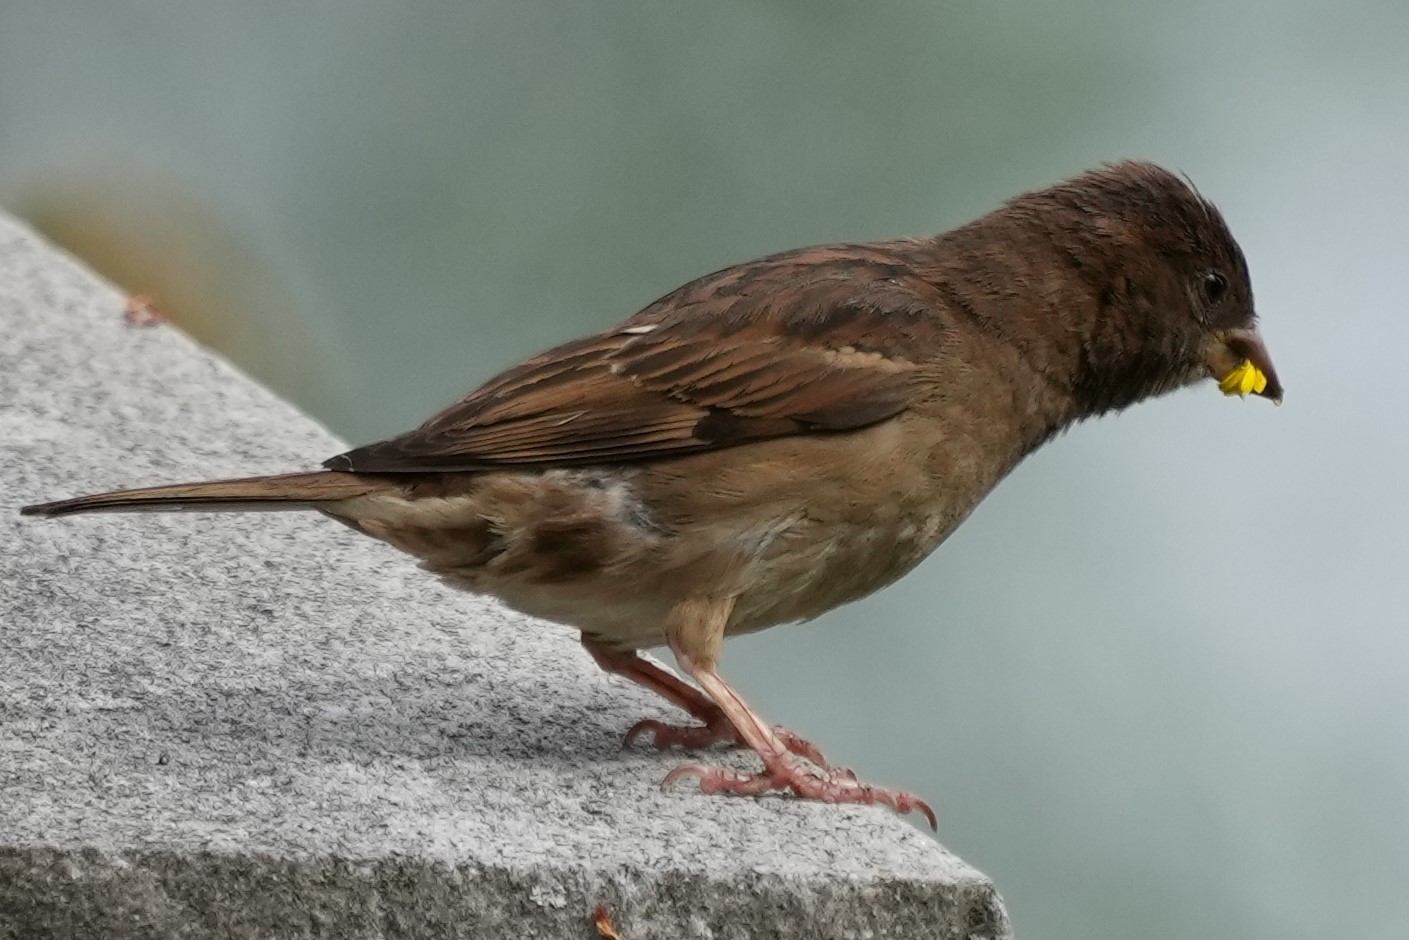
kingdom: Animalia
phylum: Chordata
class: Aves
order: Passeriformes
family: Passeridae
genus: Passer
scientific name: Passer domesticus
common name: House sparrow
